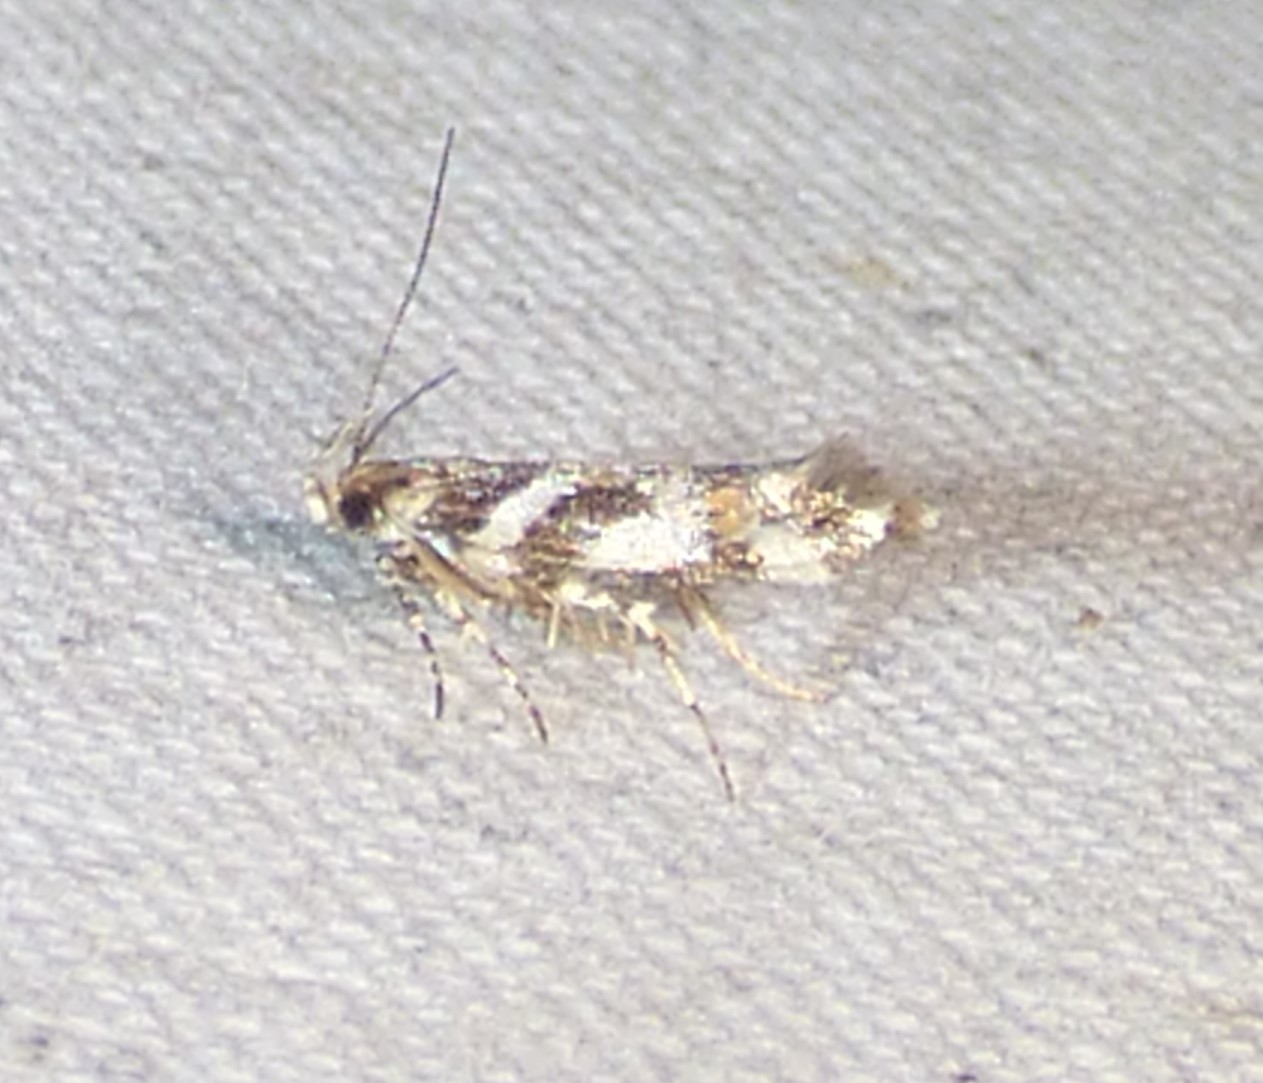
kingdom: Animalia
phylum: Arthropoda
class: Insecta
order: Lepidoptera
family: Gelechiidae
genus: Aristotelia
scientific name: Aristotelia roseosuffusella
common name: Pink-washed aristotelia moth
